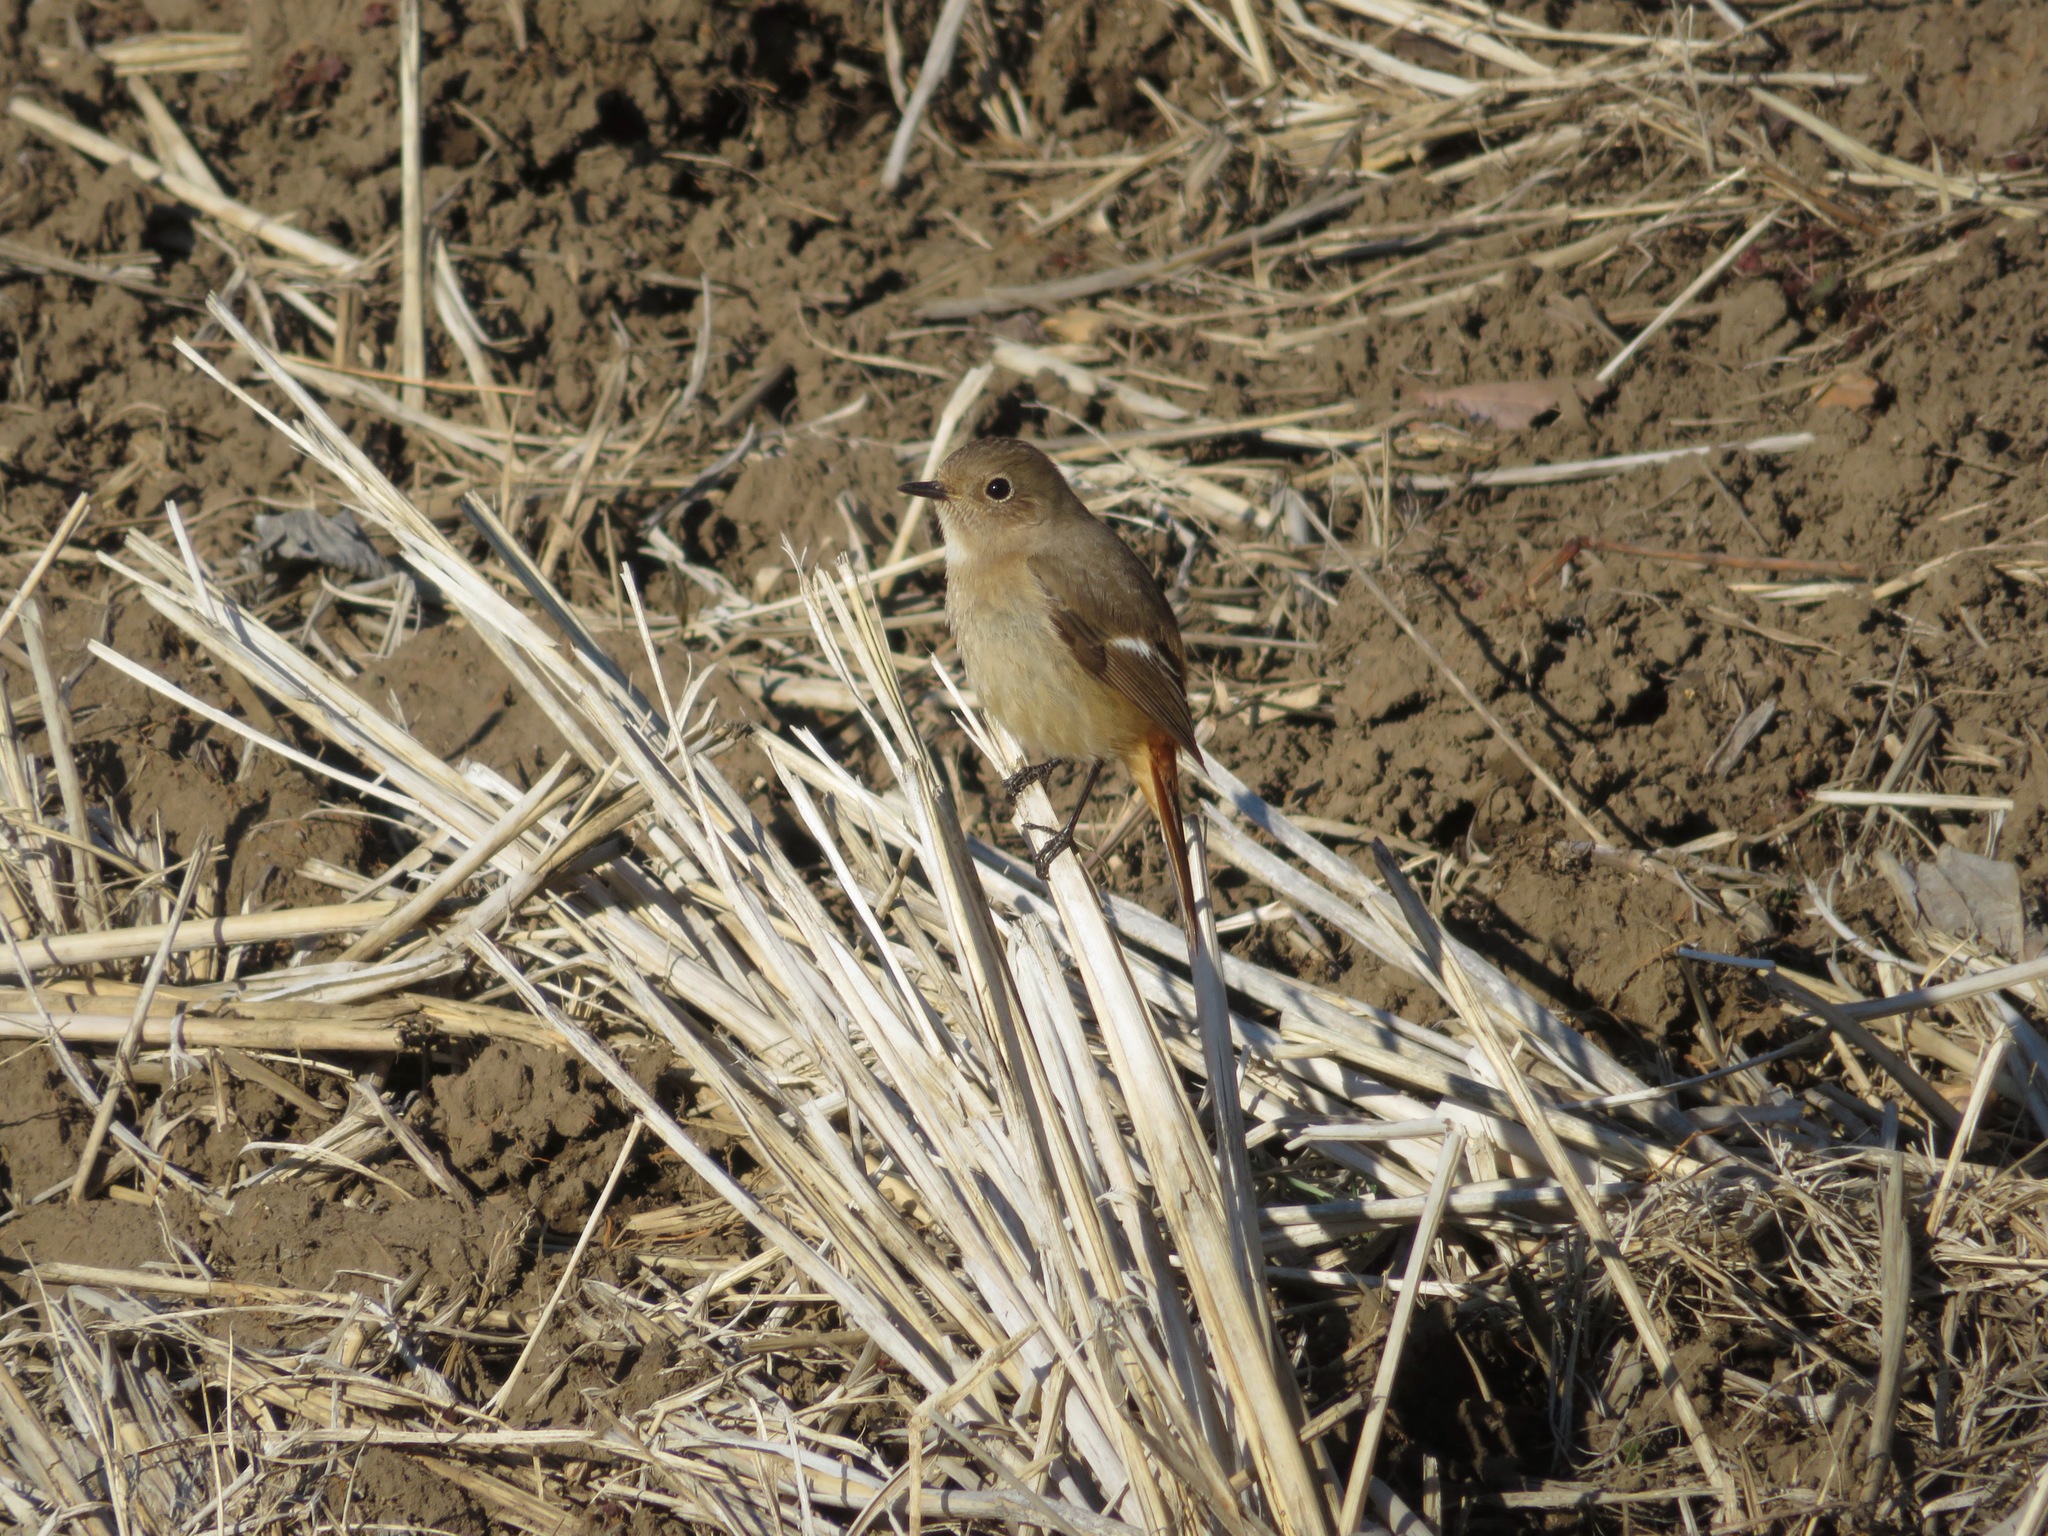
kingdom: Animalia
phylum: Chordata
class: Aves
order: Passeriformes
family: Muscicapidae
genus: Phoenicurus
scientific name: Phoenicurus auroreus
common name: Daurian redstart
